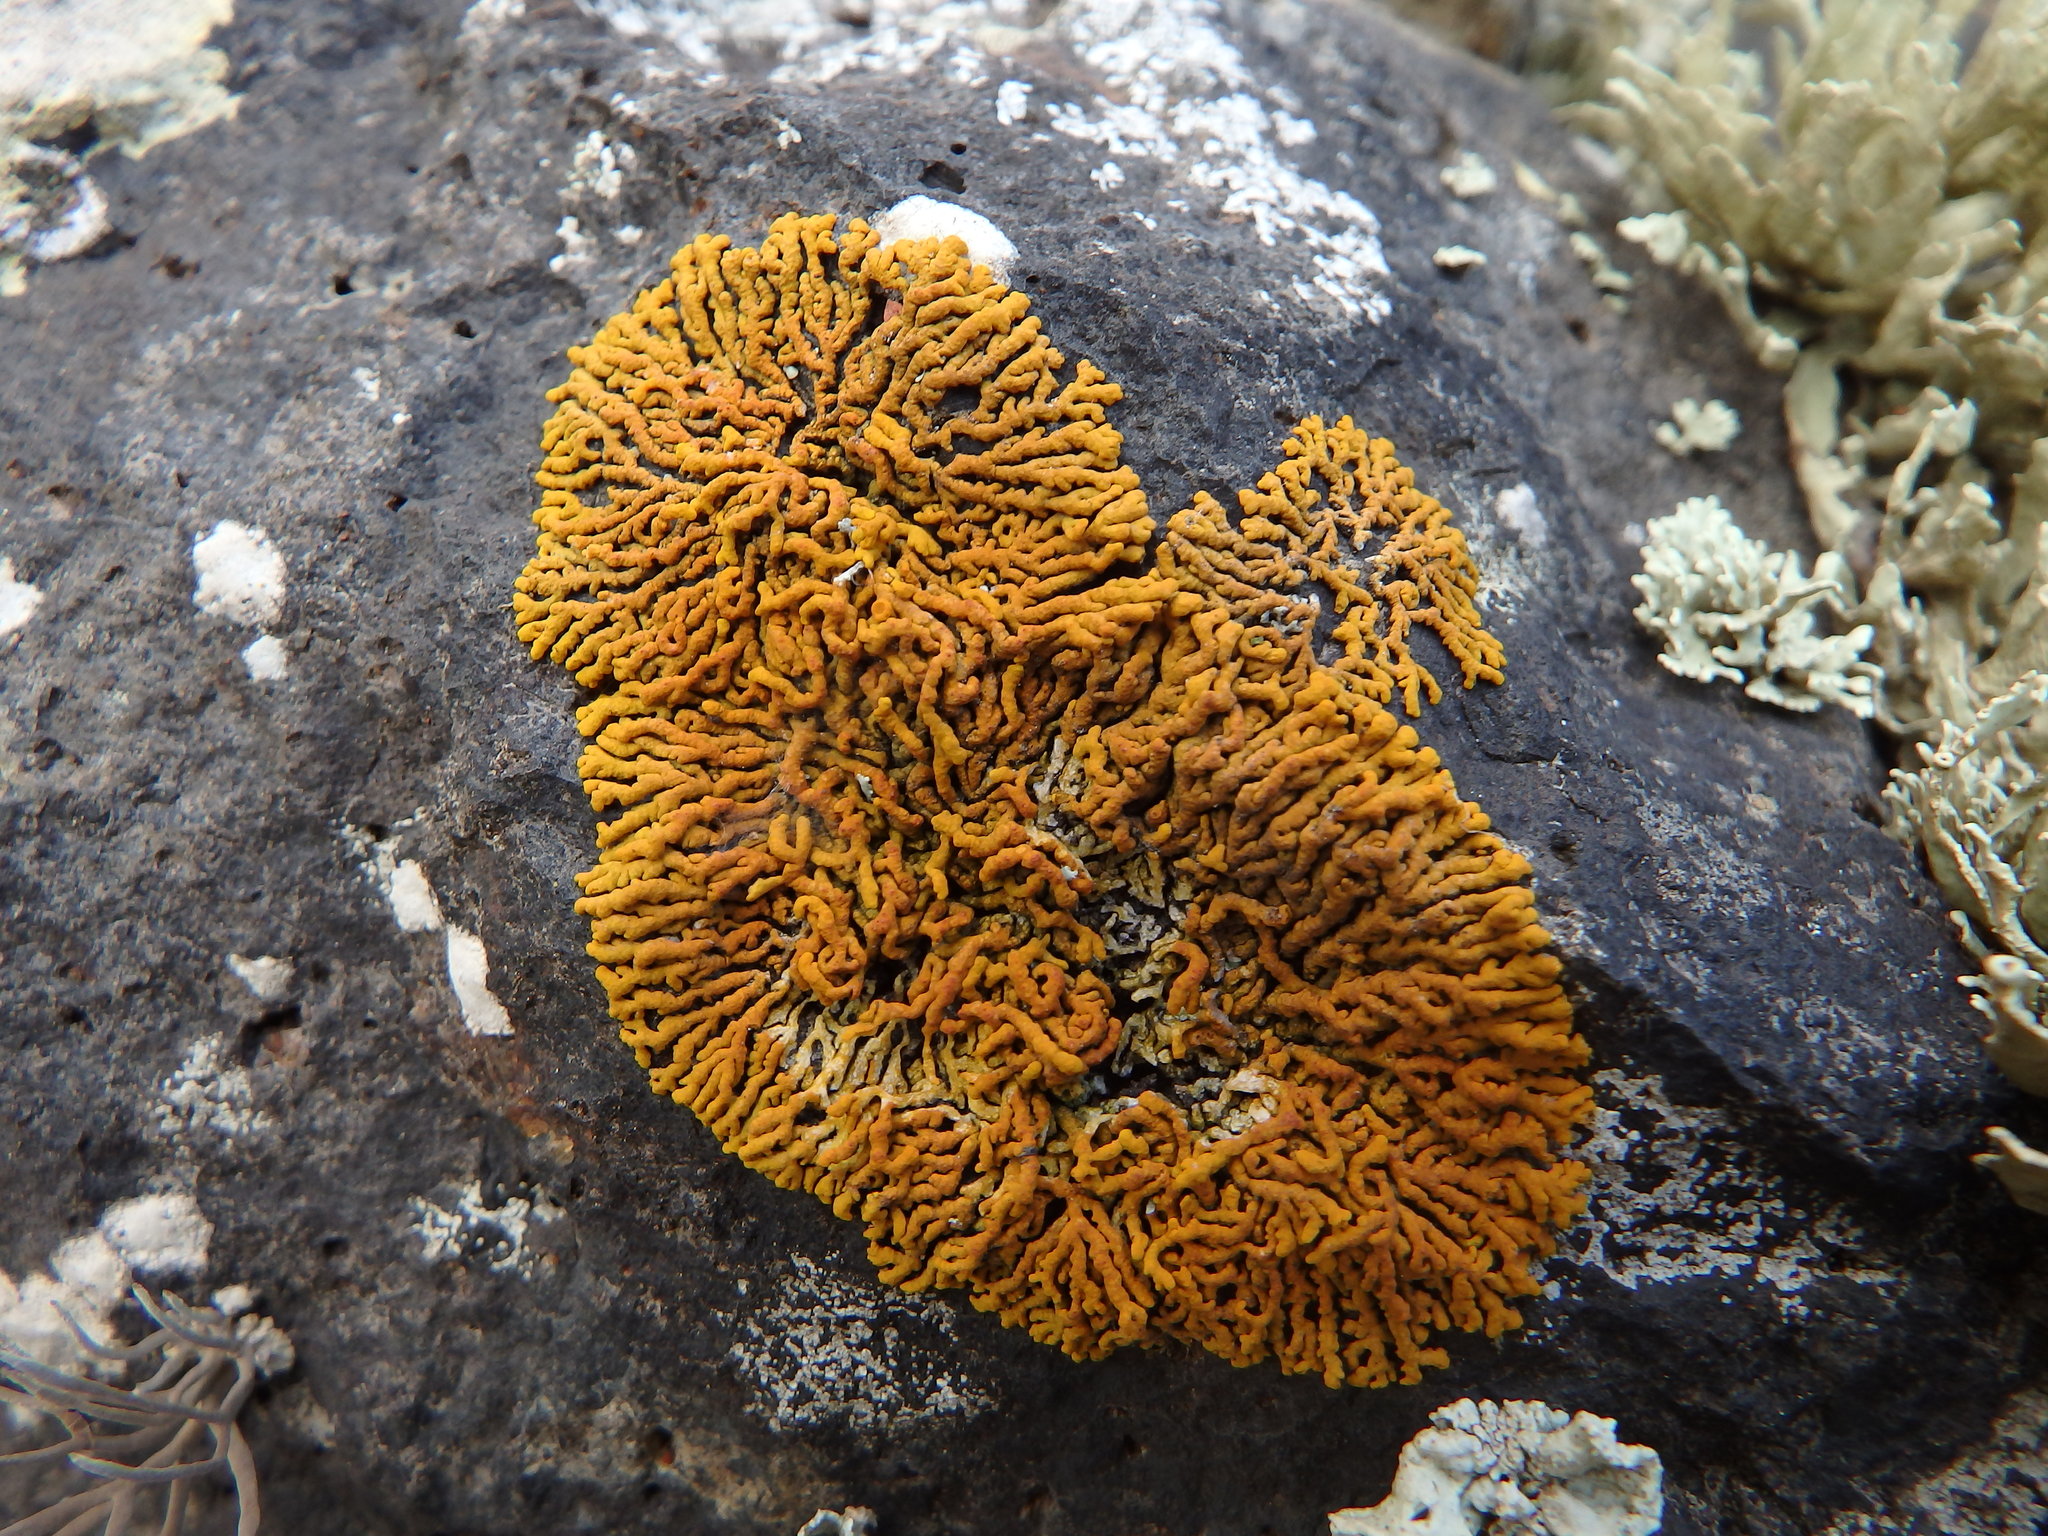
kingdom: Fungi
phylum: Ascomycota
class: Lecanoromycetes
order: Teloschistales
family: Teloschistaceae
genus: Martinjahnsia
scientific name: Martinjahnsia resendei
